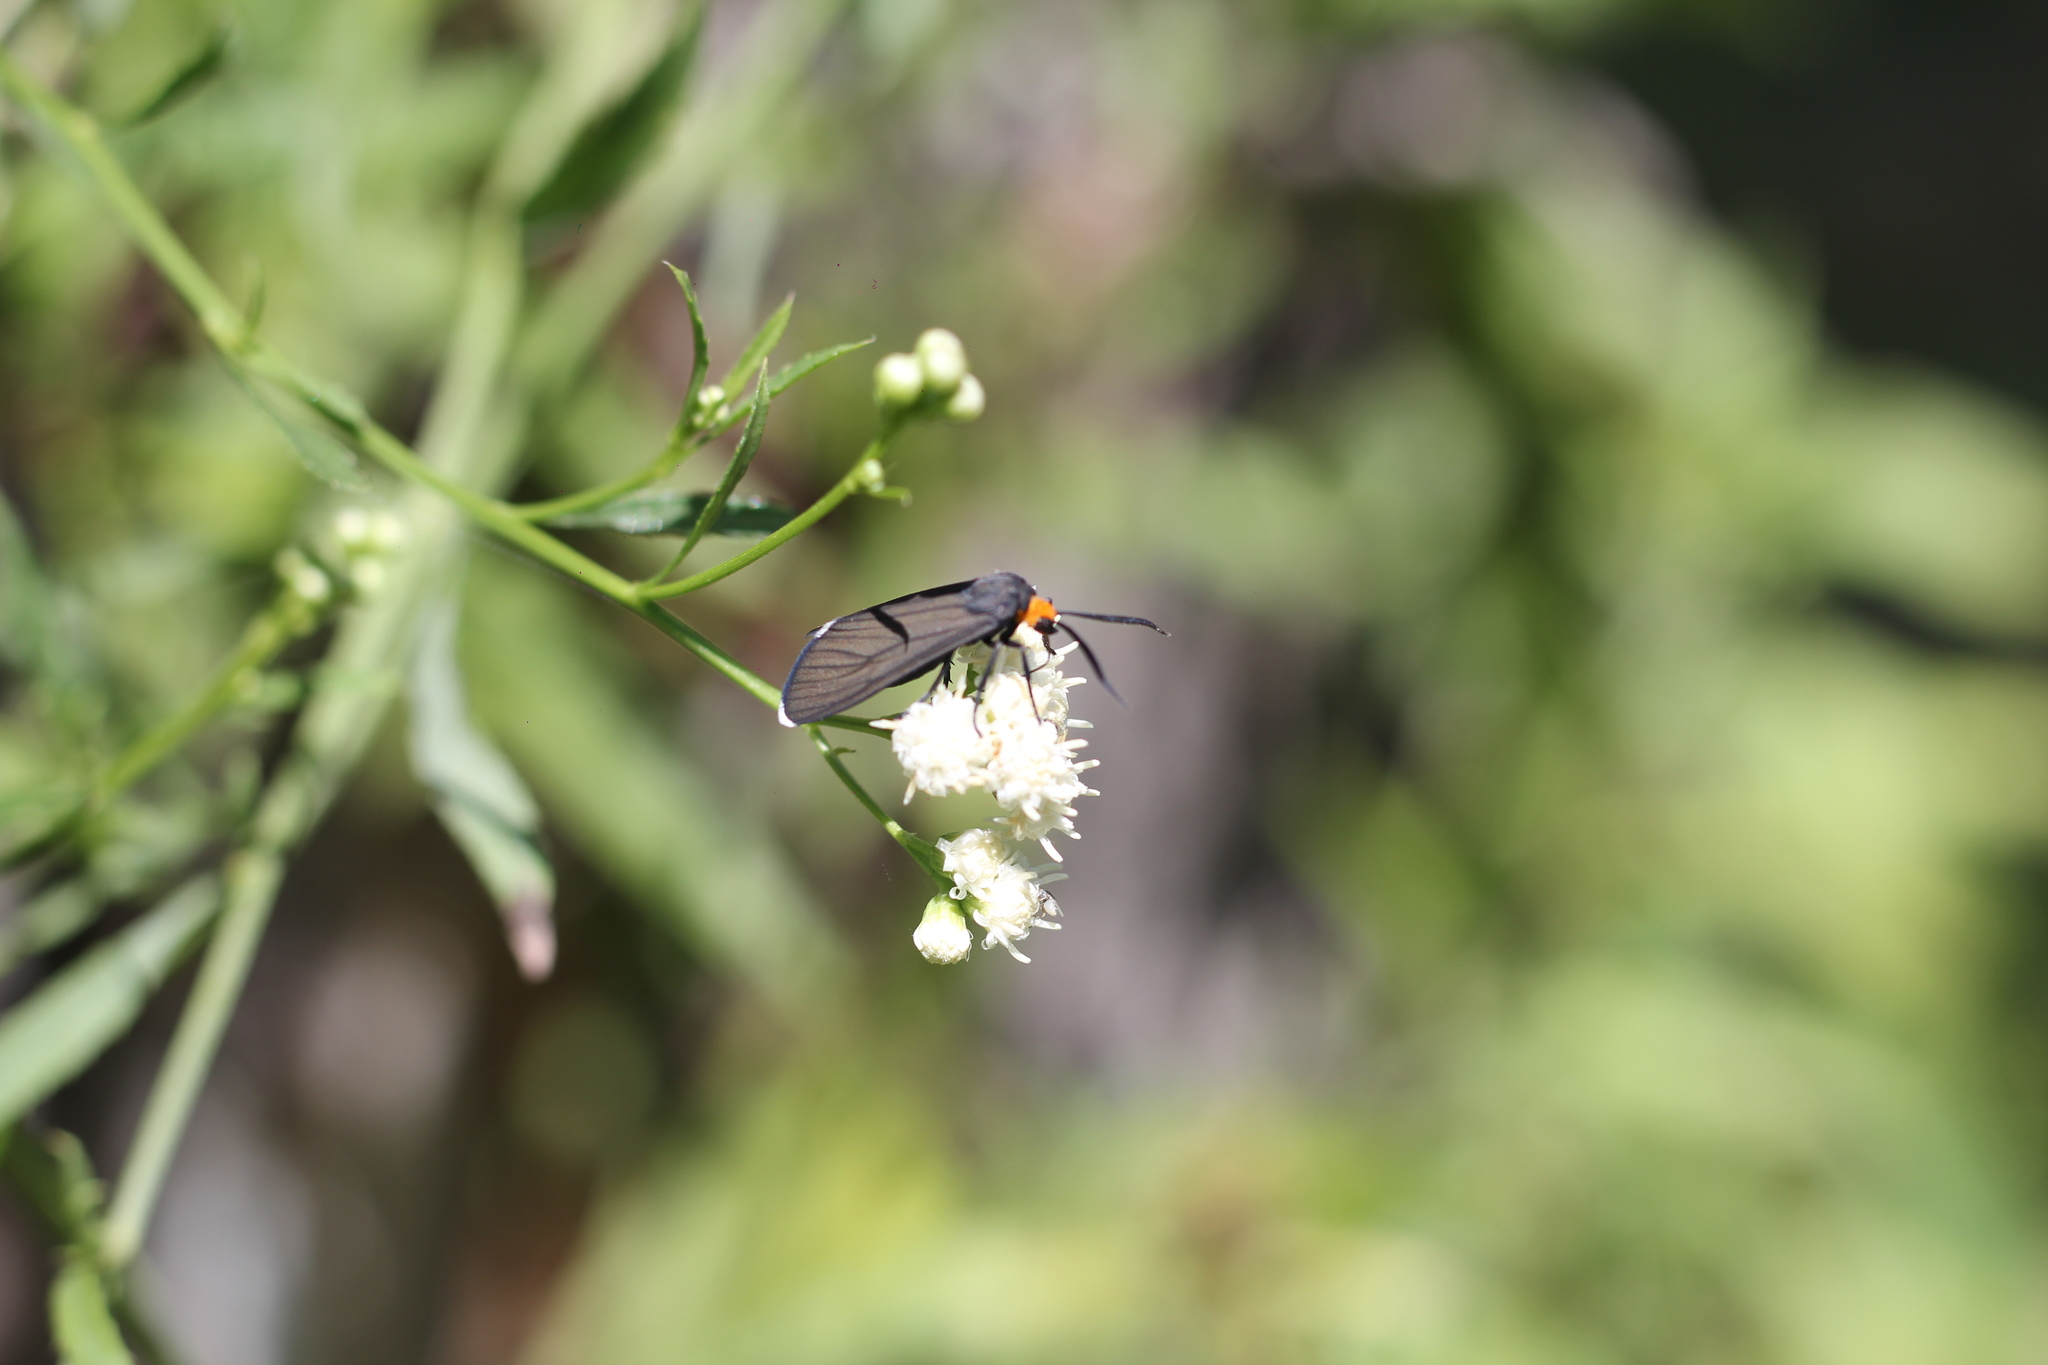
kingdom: Animalia
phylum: Arthropoda
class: Insecta
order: Lepidoptera
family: Erebidae
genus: Ctenucha
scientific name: Ctenucha rubriceps
